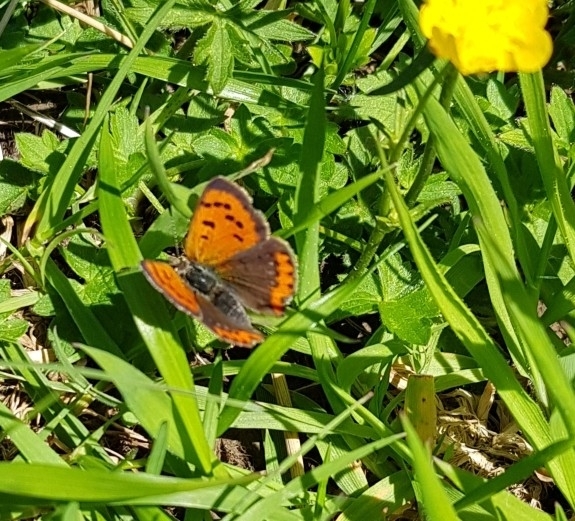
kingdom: Animalia
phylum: Arthropoda
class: Insecta
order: Lepidoptera
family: Lycaenidae
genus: Lycaena
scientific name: Lycaena phlaeas
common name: Small copper
